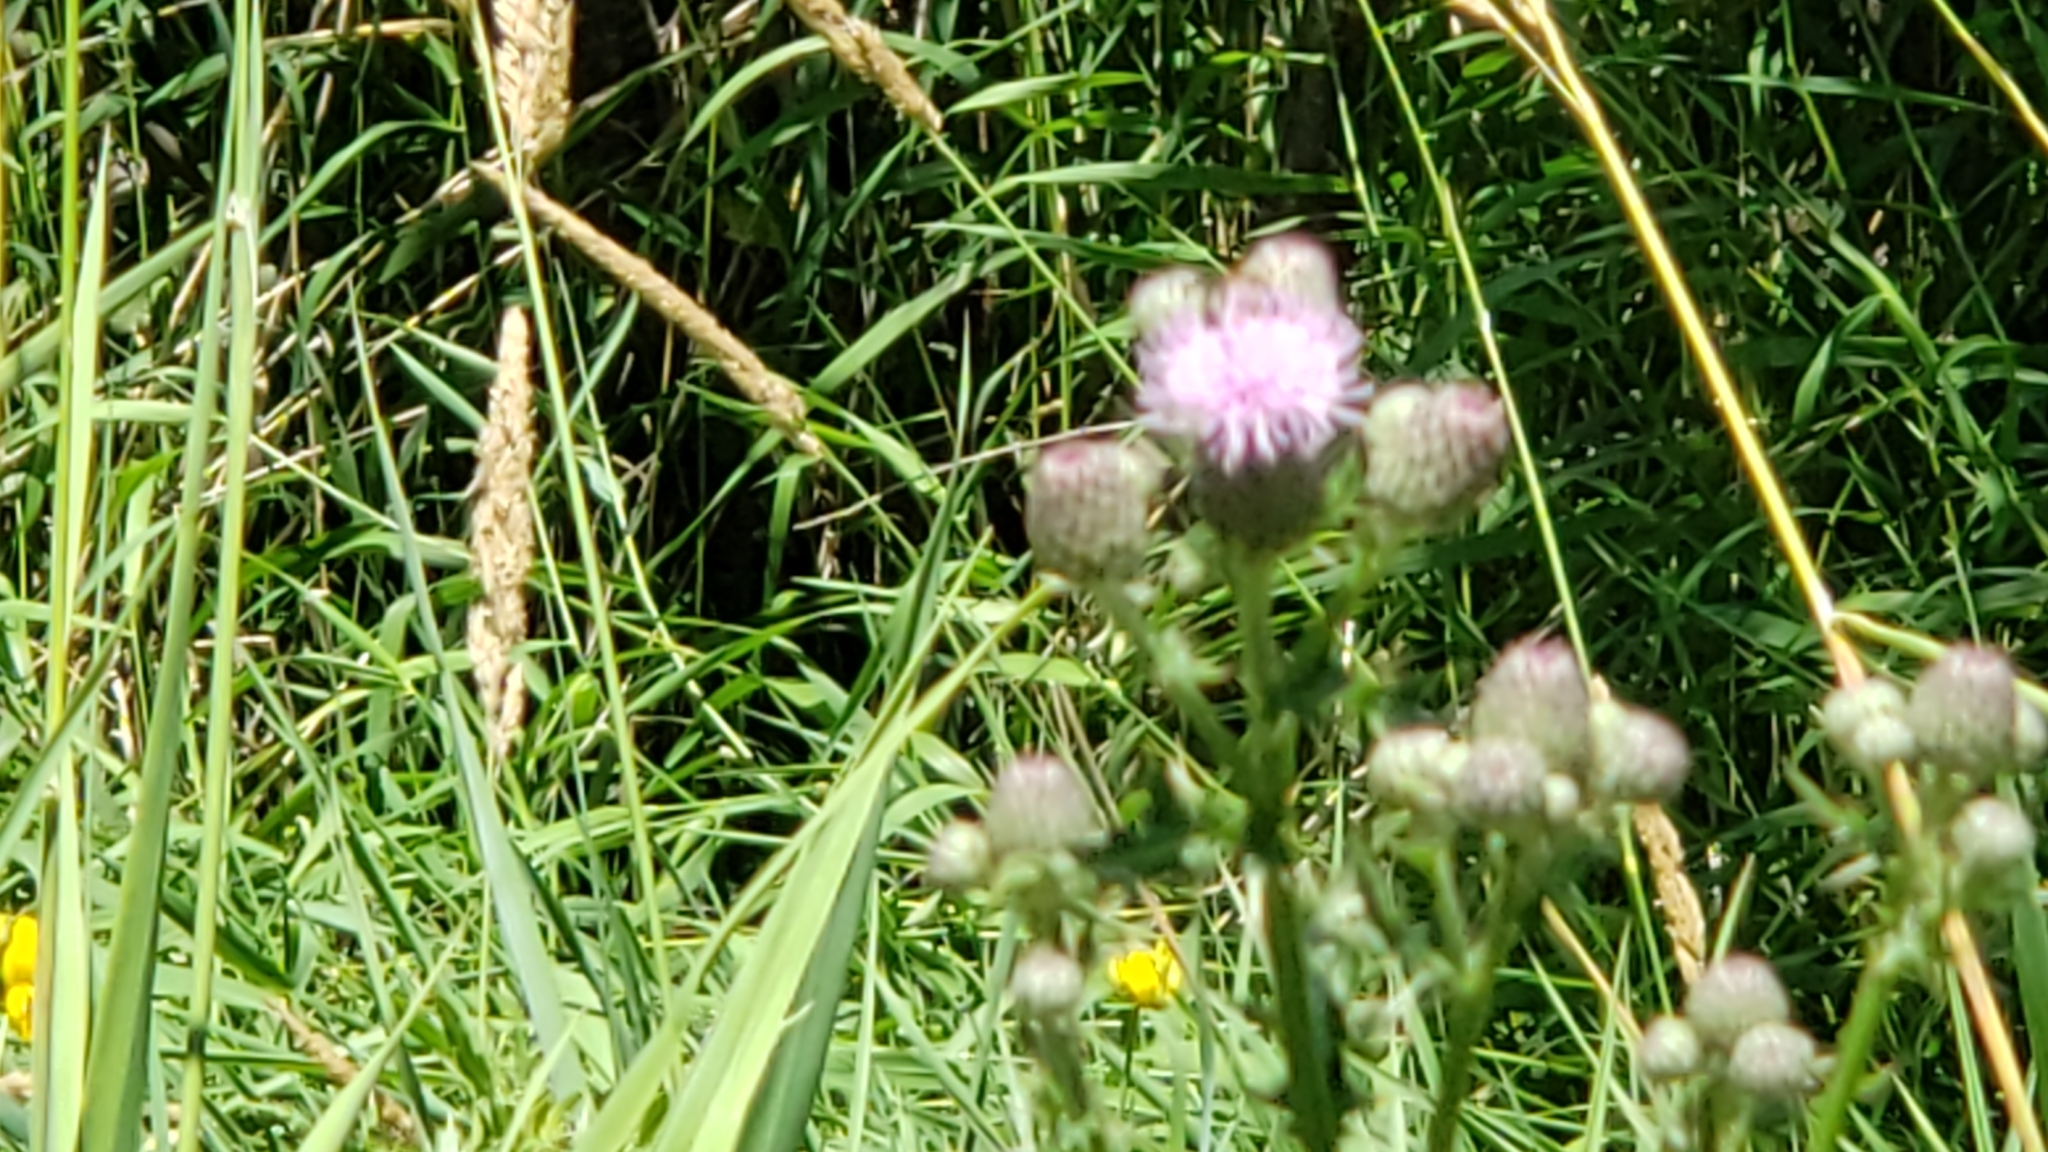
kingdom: Plantae
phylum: Tracheophyta
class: Magnoliopsida
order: Asterales
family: Asteraceae
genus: Cirsium
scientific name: Cirsium arvense
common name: Creeping thistle
